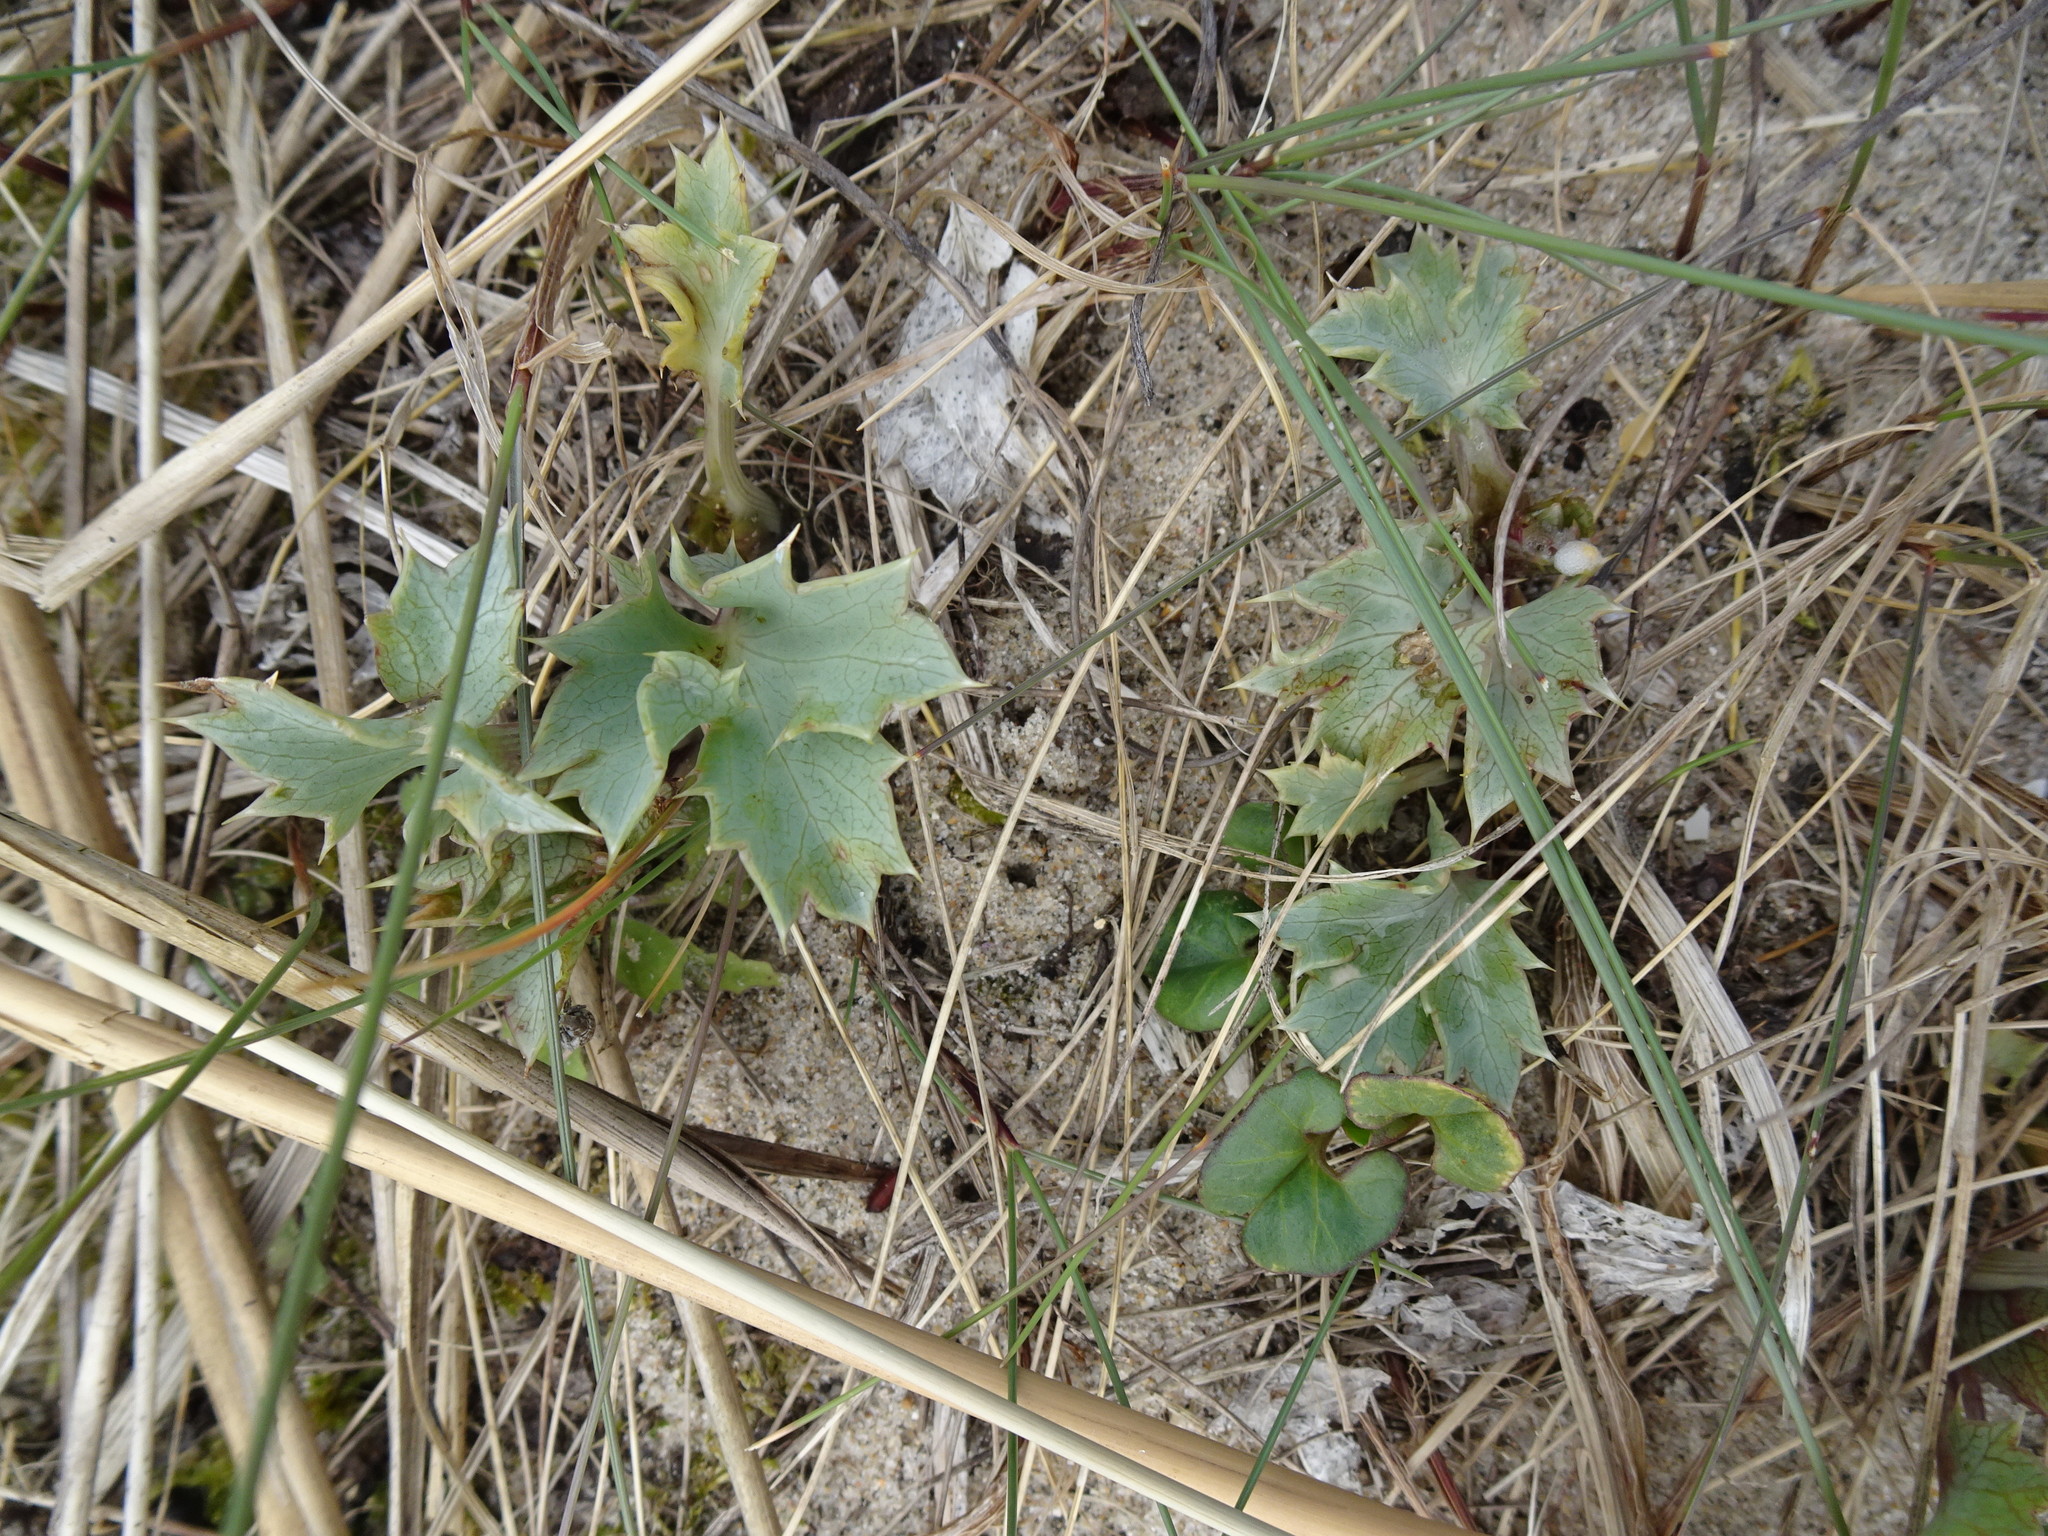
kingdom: Plantae
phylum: Tracheophyta
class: Magnoliopsida
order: Apiales
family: Apiaceae
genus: Eryngium
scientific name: Eryngium maritimum
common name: Sea-holly
